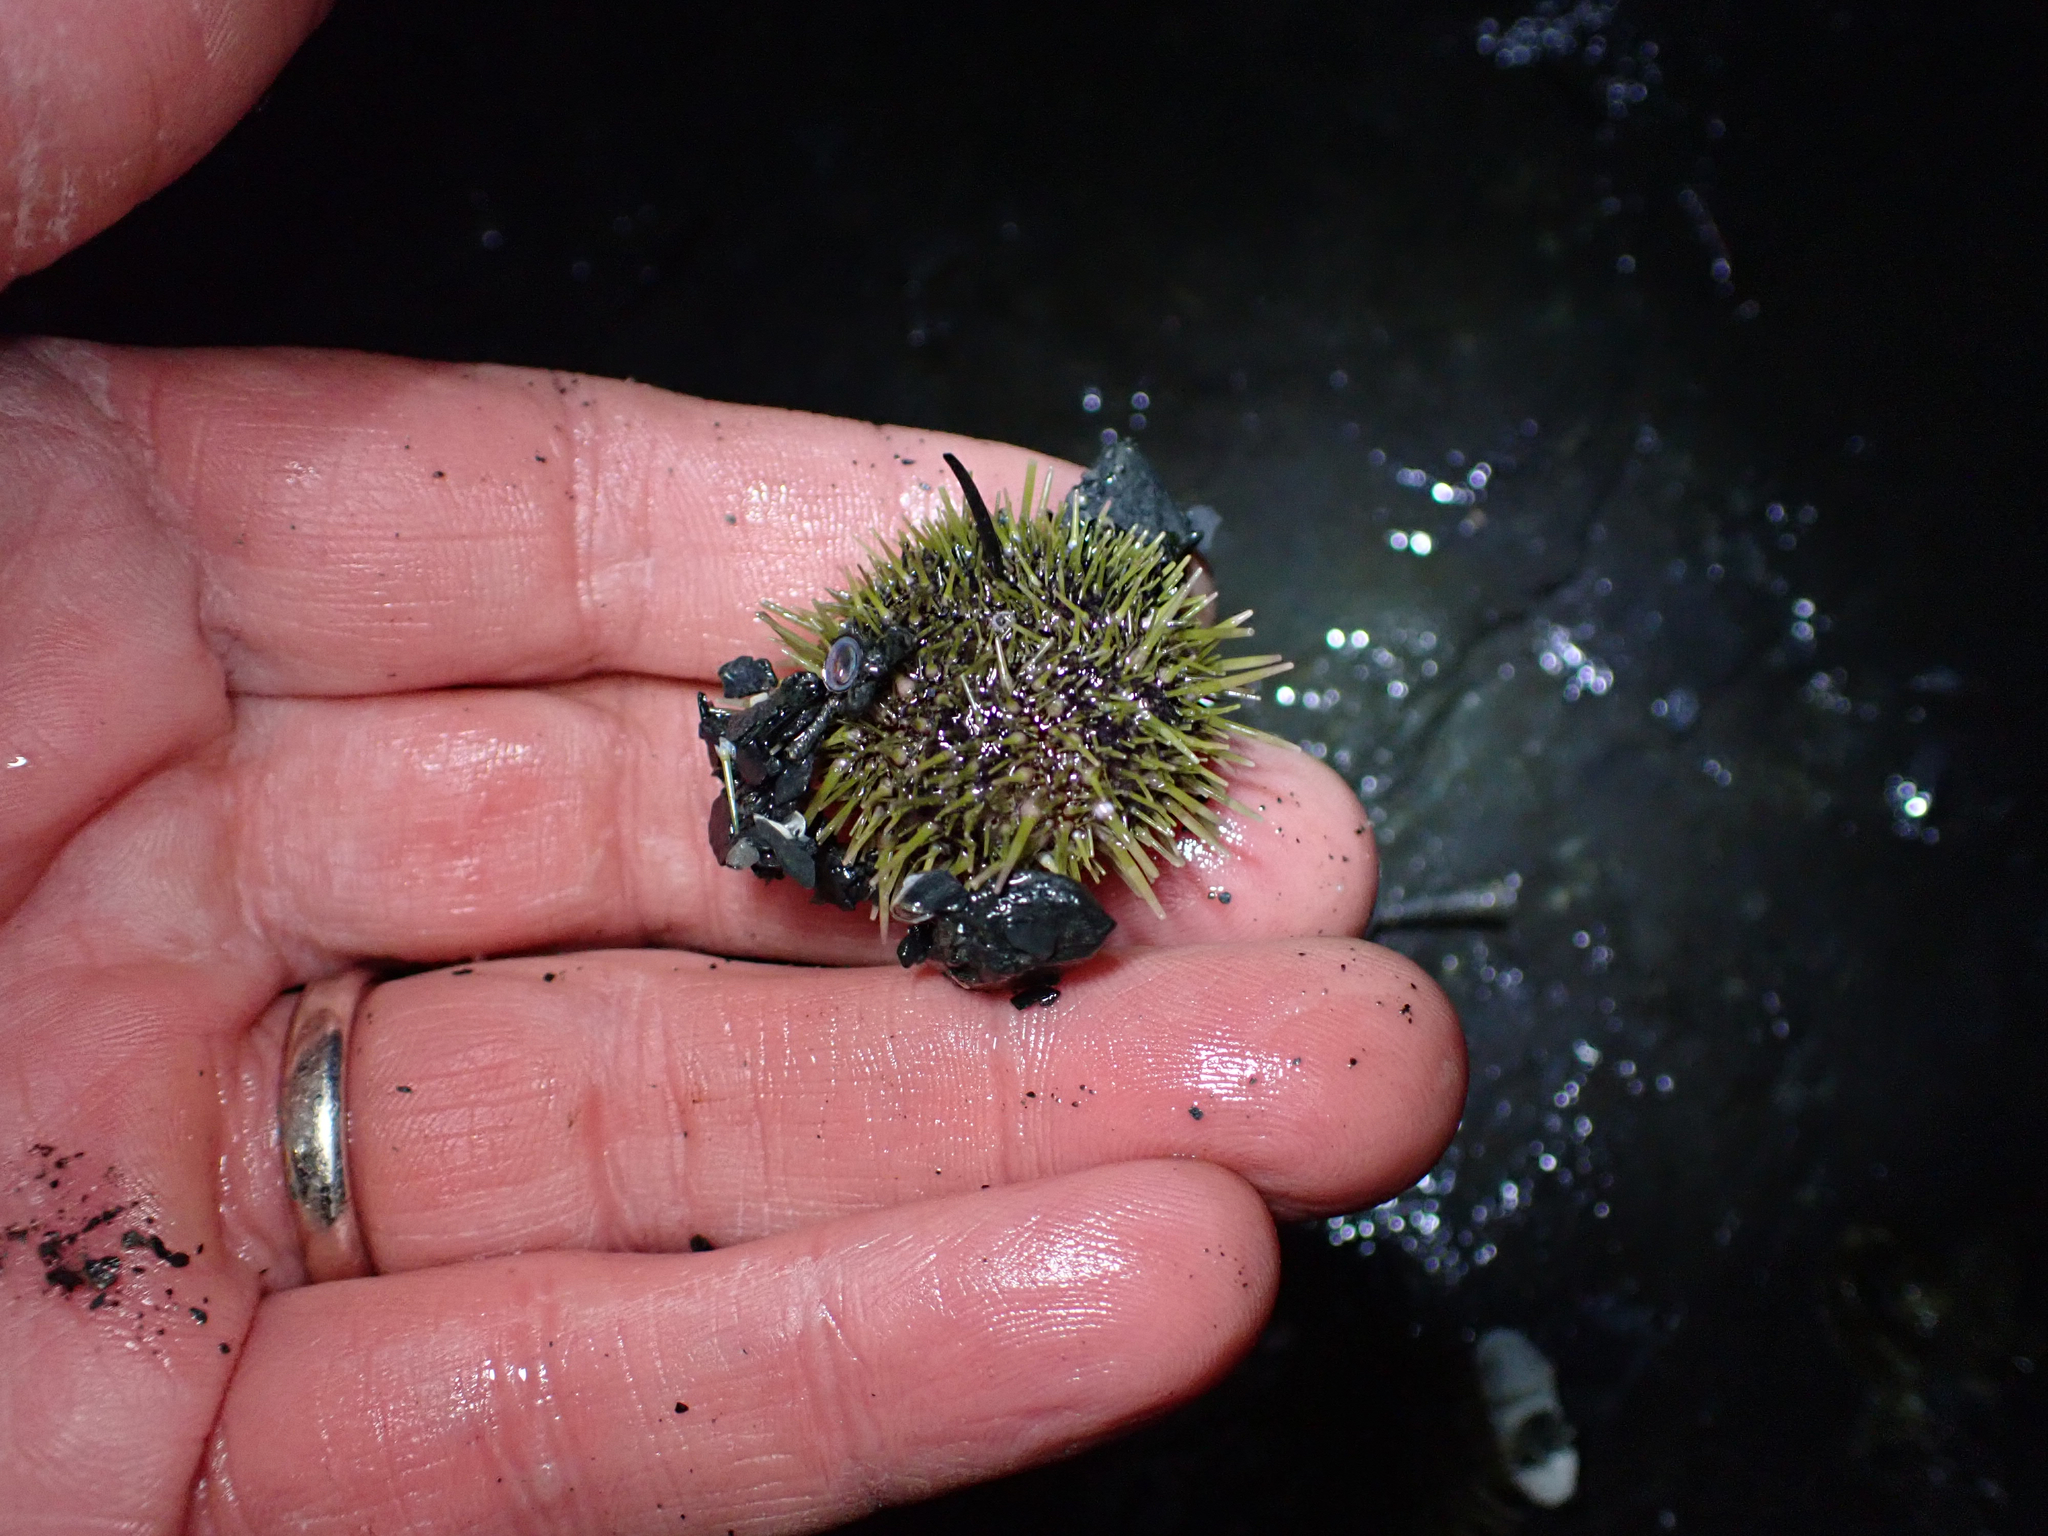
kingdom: Animalia
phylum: Echinodermata
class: Echinoidea
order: Camarodonta
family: Strongylocentrotidae
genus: Strongylocentrotus
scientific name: Strongylocentrotus droebachiensis
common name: Northern sea urchin
